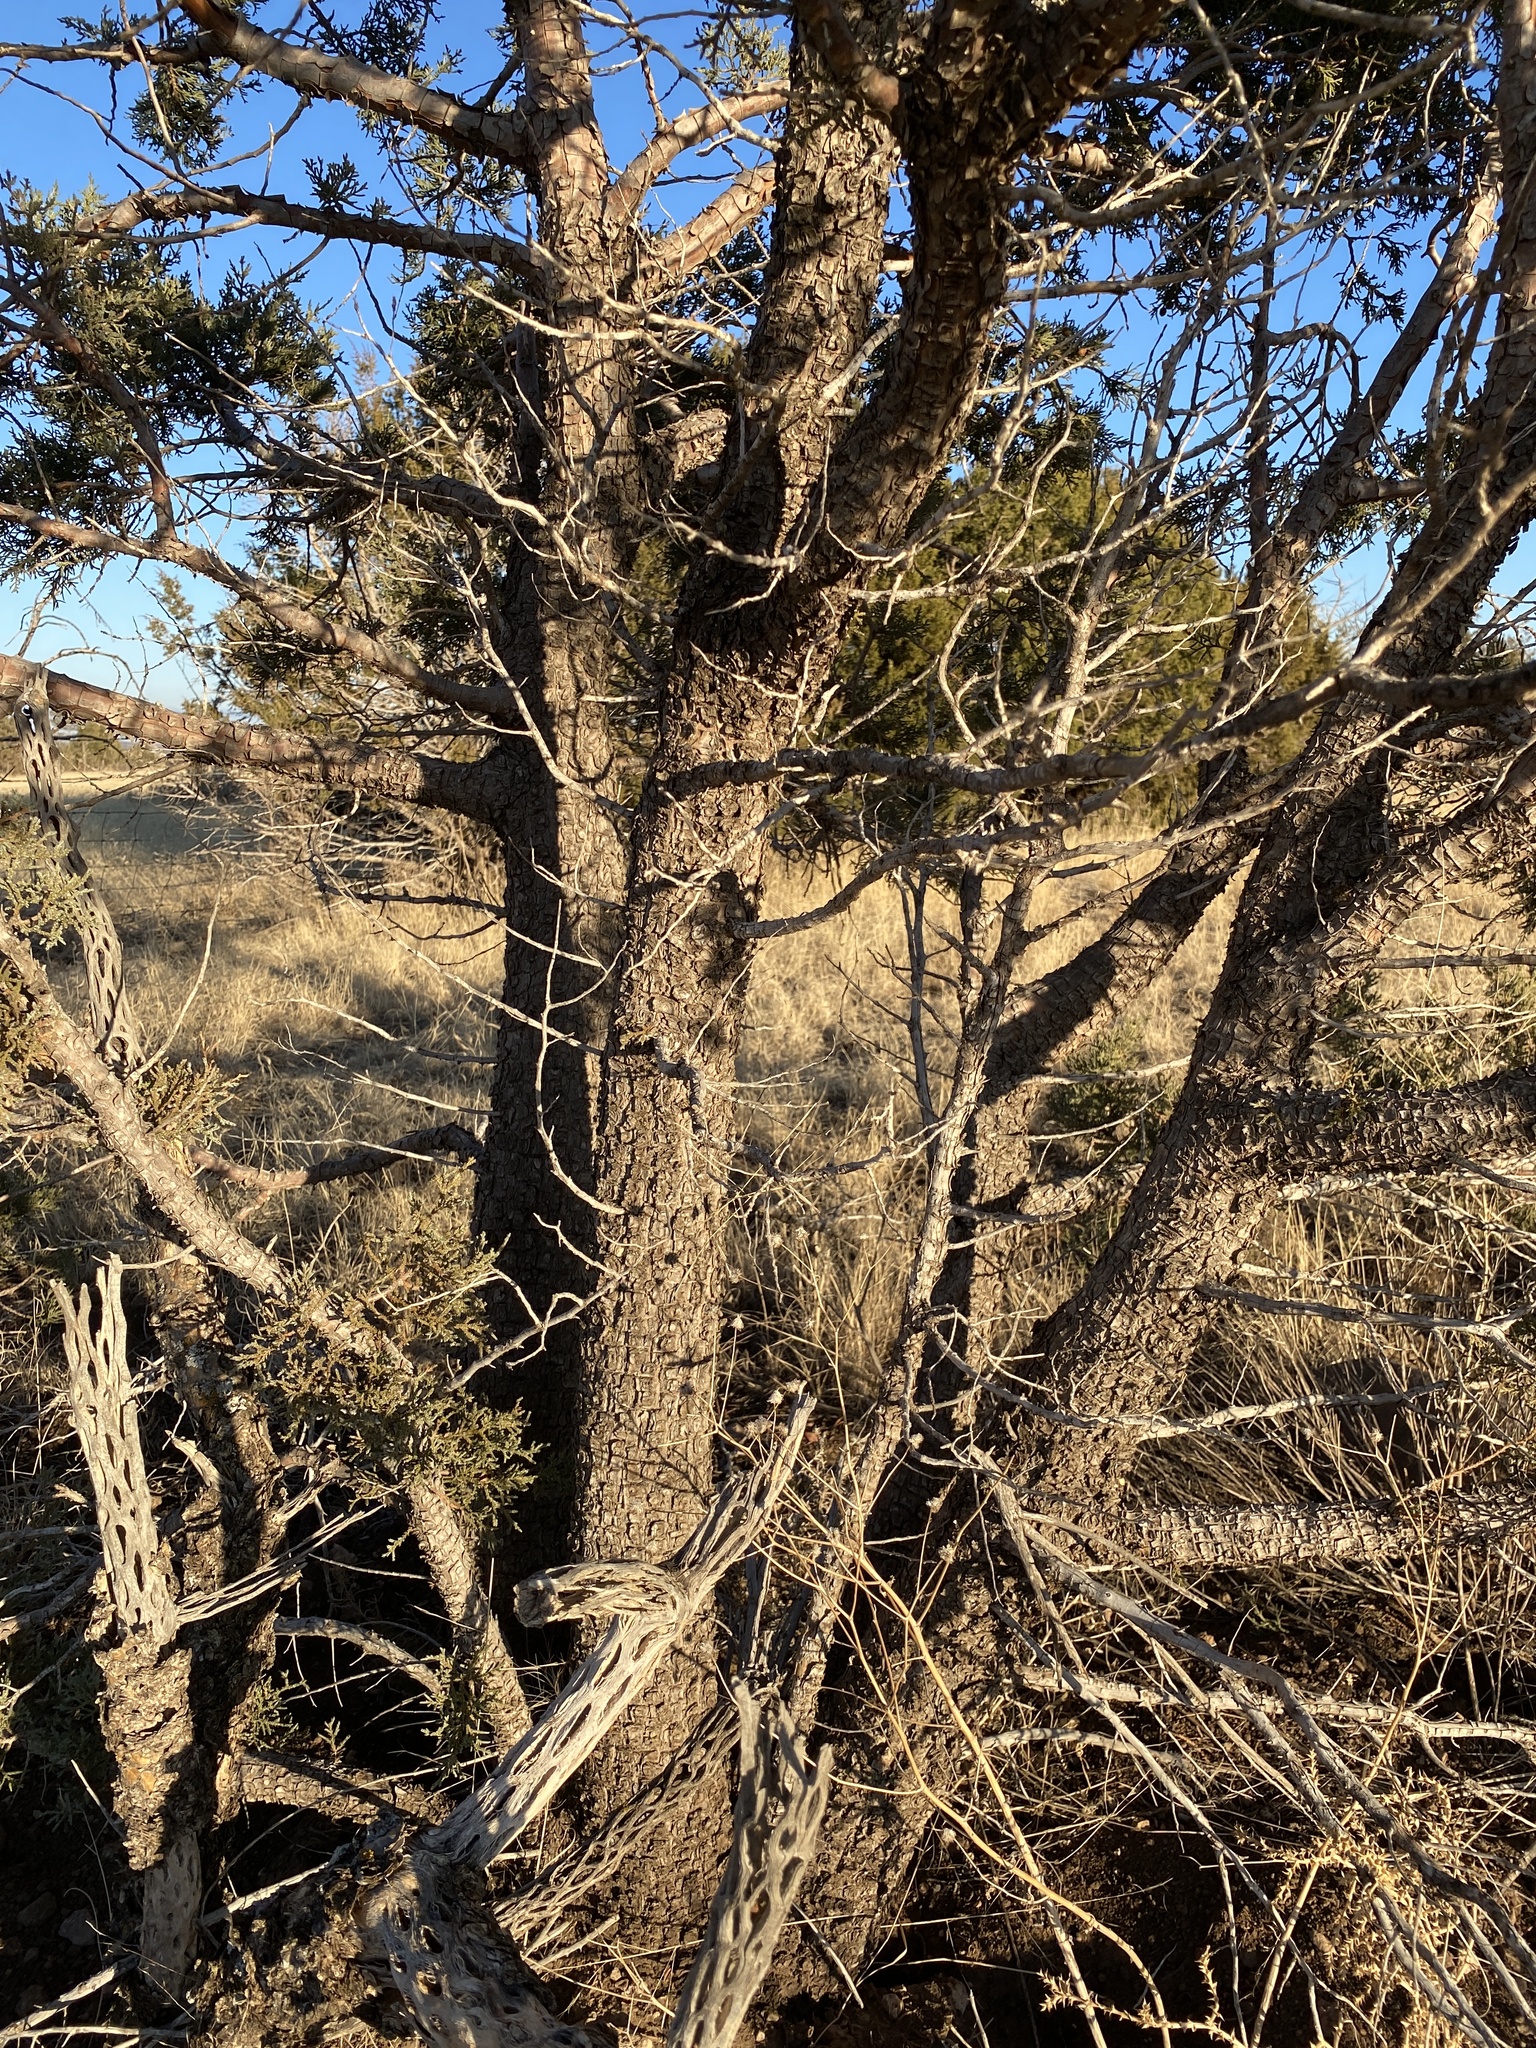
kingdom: Plantae
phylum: Tracheophyta
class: Pinopsida
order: Pinales
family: Cupressaceae
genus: Juniperus
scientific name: Juniperus deppeana
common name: Alligator juniper
